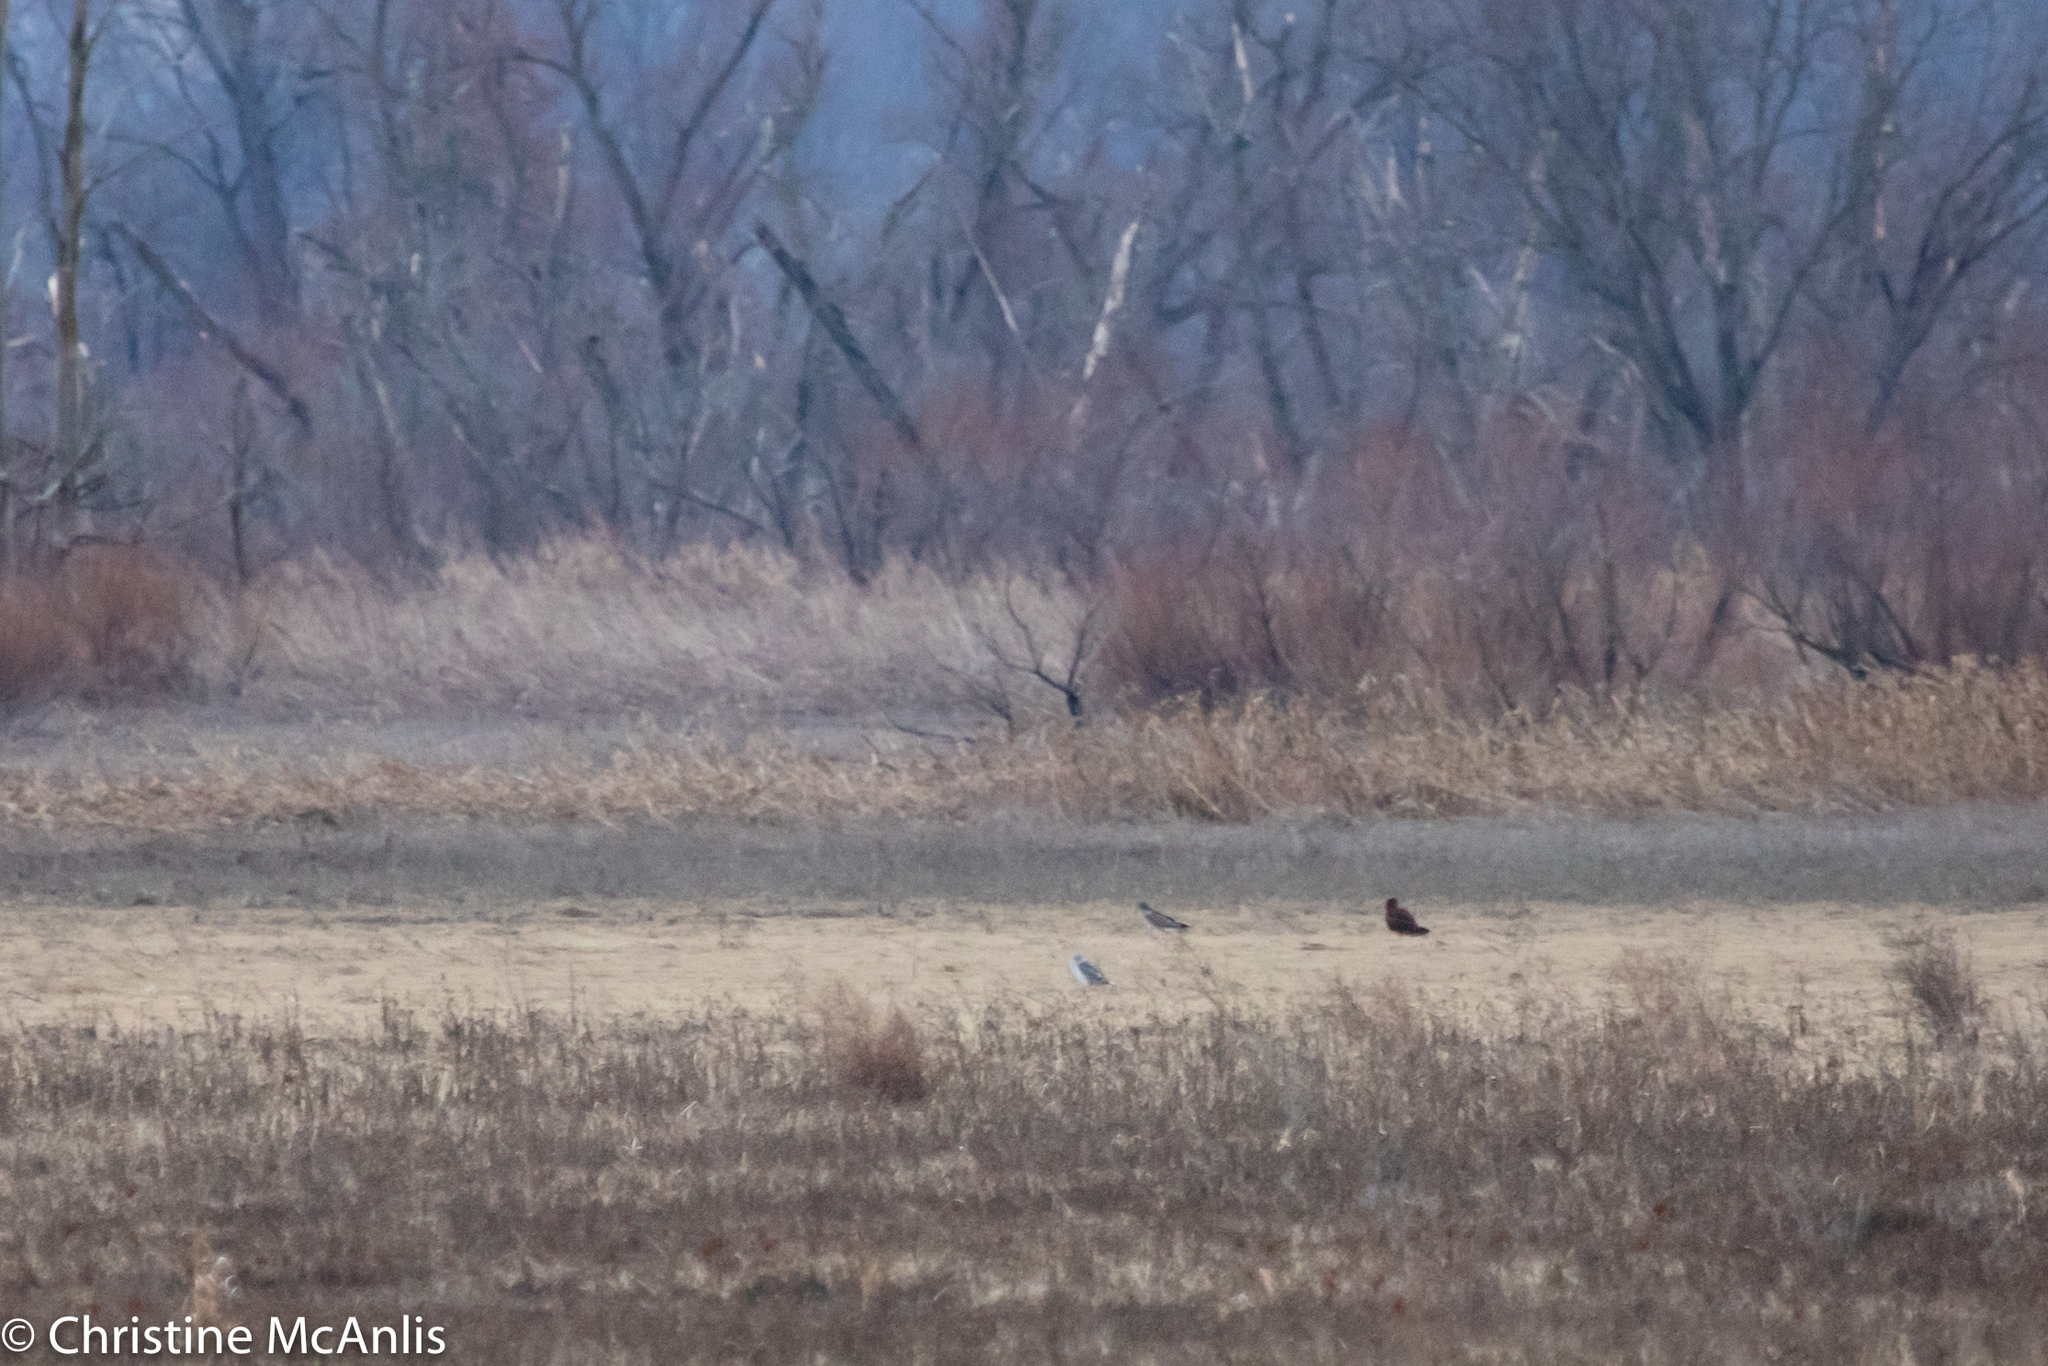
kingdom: Animalia
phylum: Chordata
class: Aves
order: Accipitriformes
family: Accipitridae
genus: Circus
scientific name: Circus cyaneus
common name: Hen harrier
